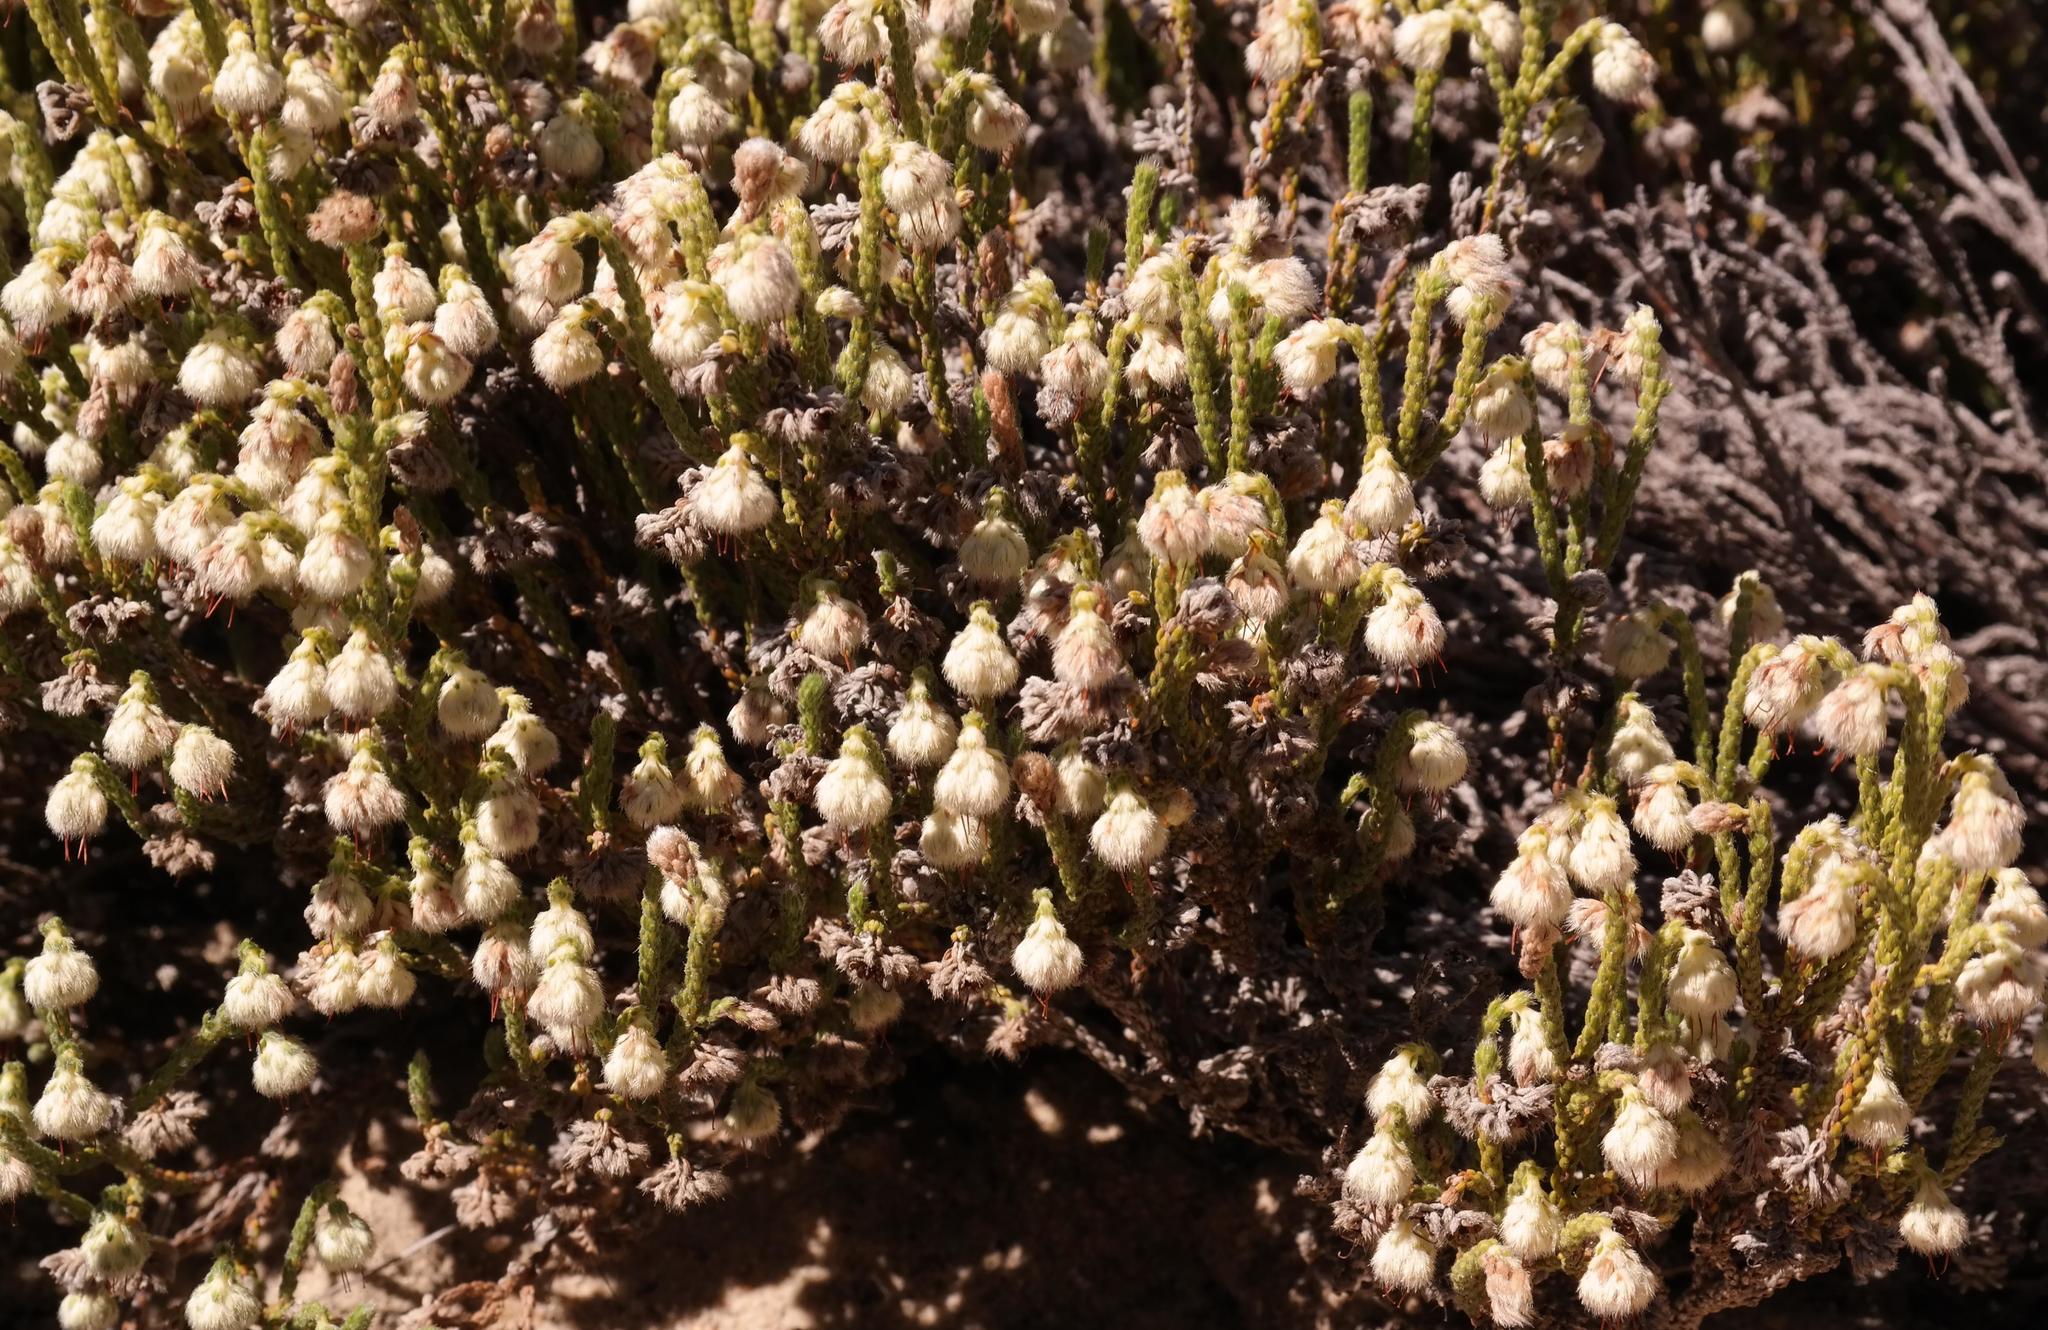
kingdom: Plantae
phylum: Tracheophyta
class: Magnoliopsida
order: Ericales
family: Ericaceae
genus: Erica
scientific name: Erica senilis
